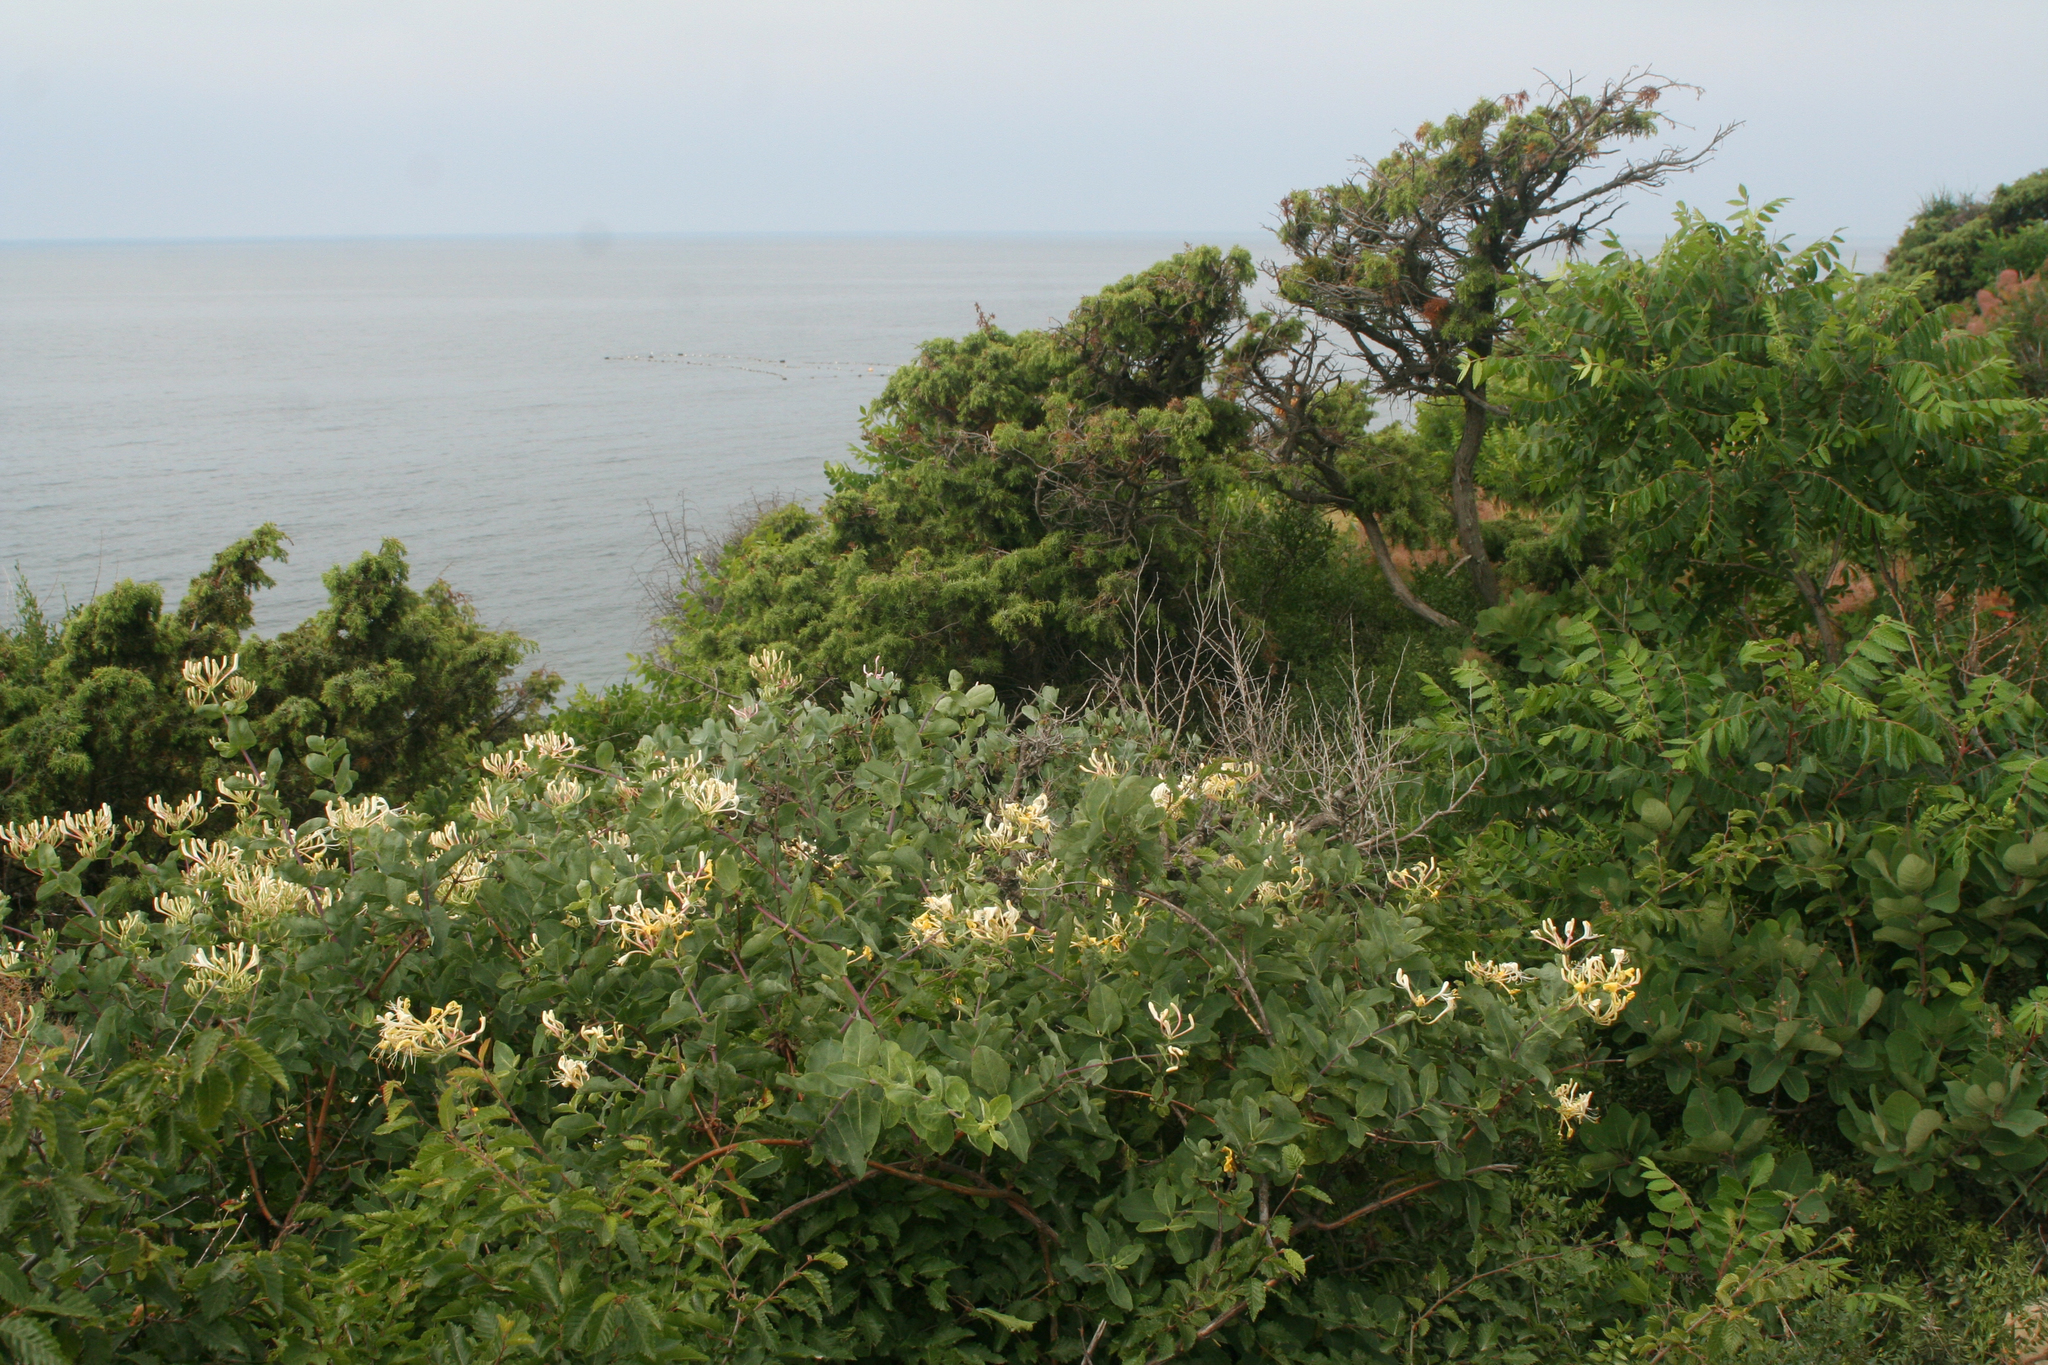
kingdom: Plantae
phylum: Tracheophyta
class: Pinopsida
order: Pinales
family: Cupressaceae
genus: Juniperus
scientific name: Juniperus oxycedrus
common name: Prickly juniper
